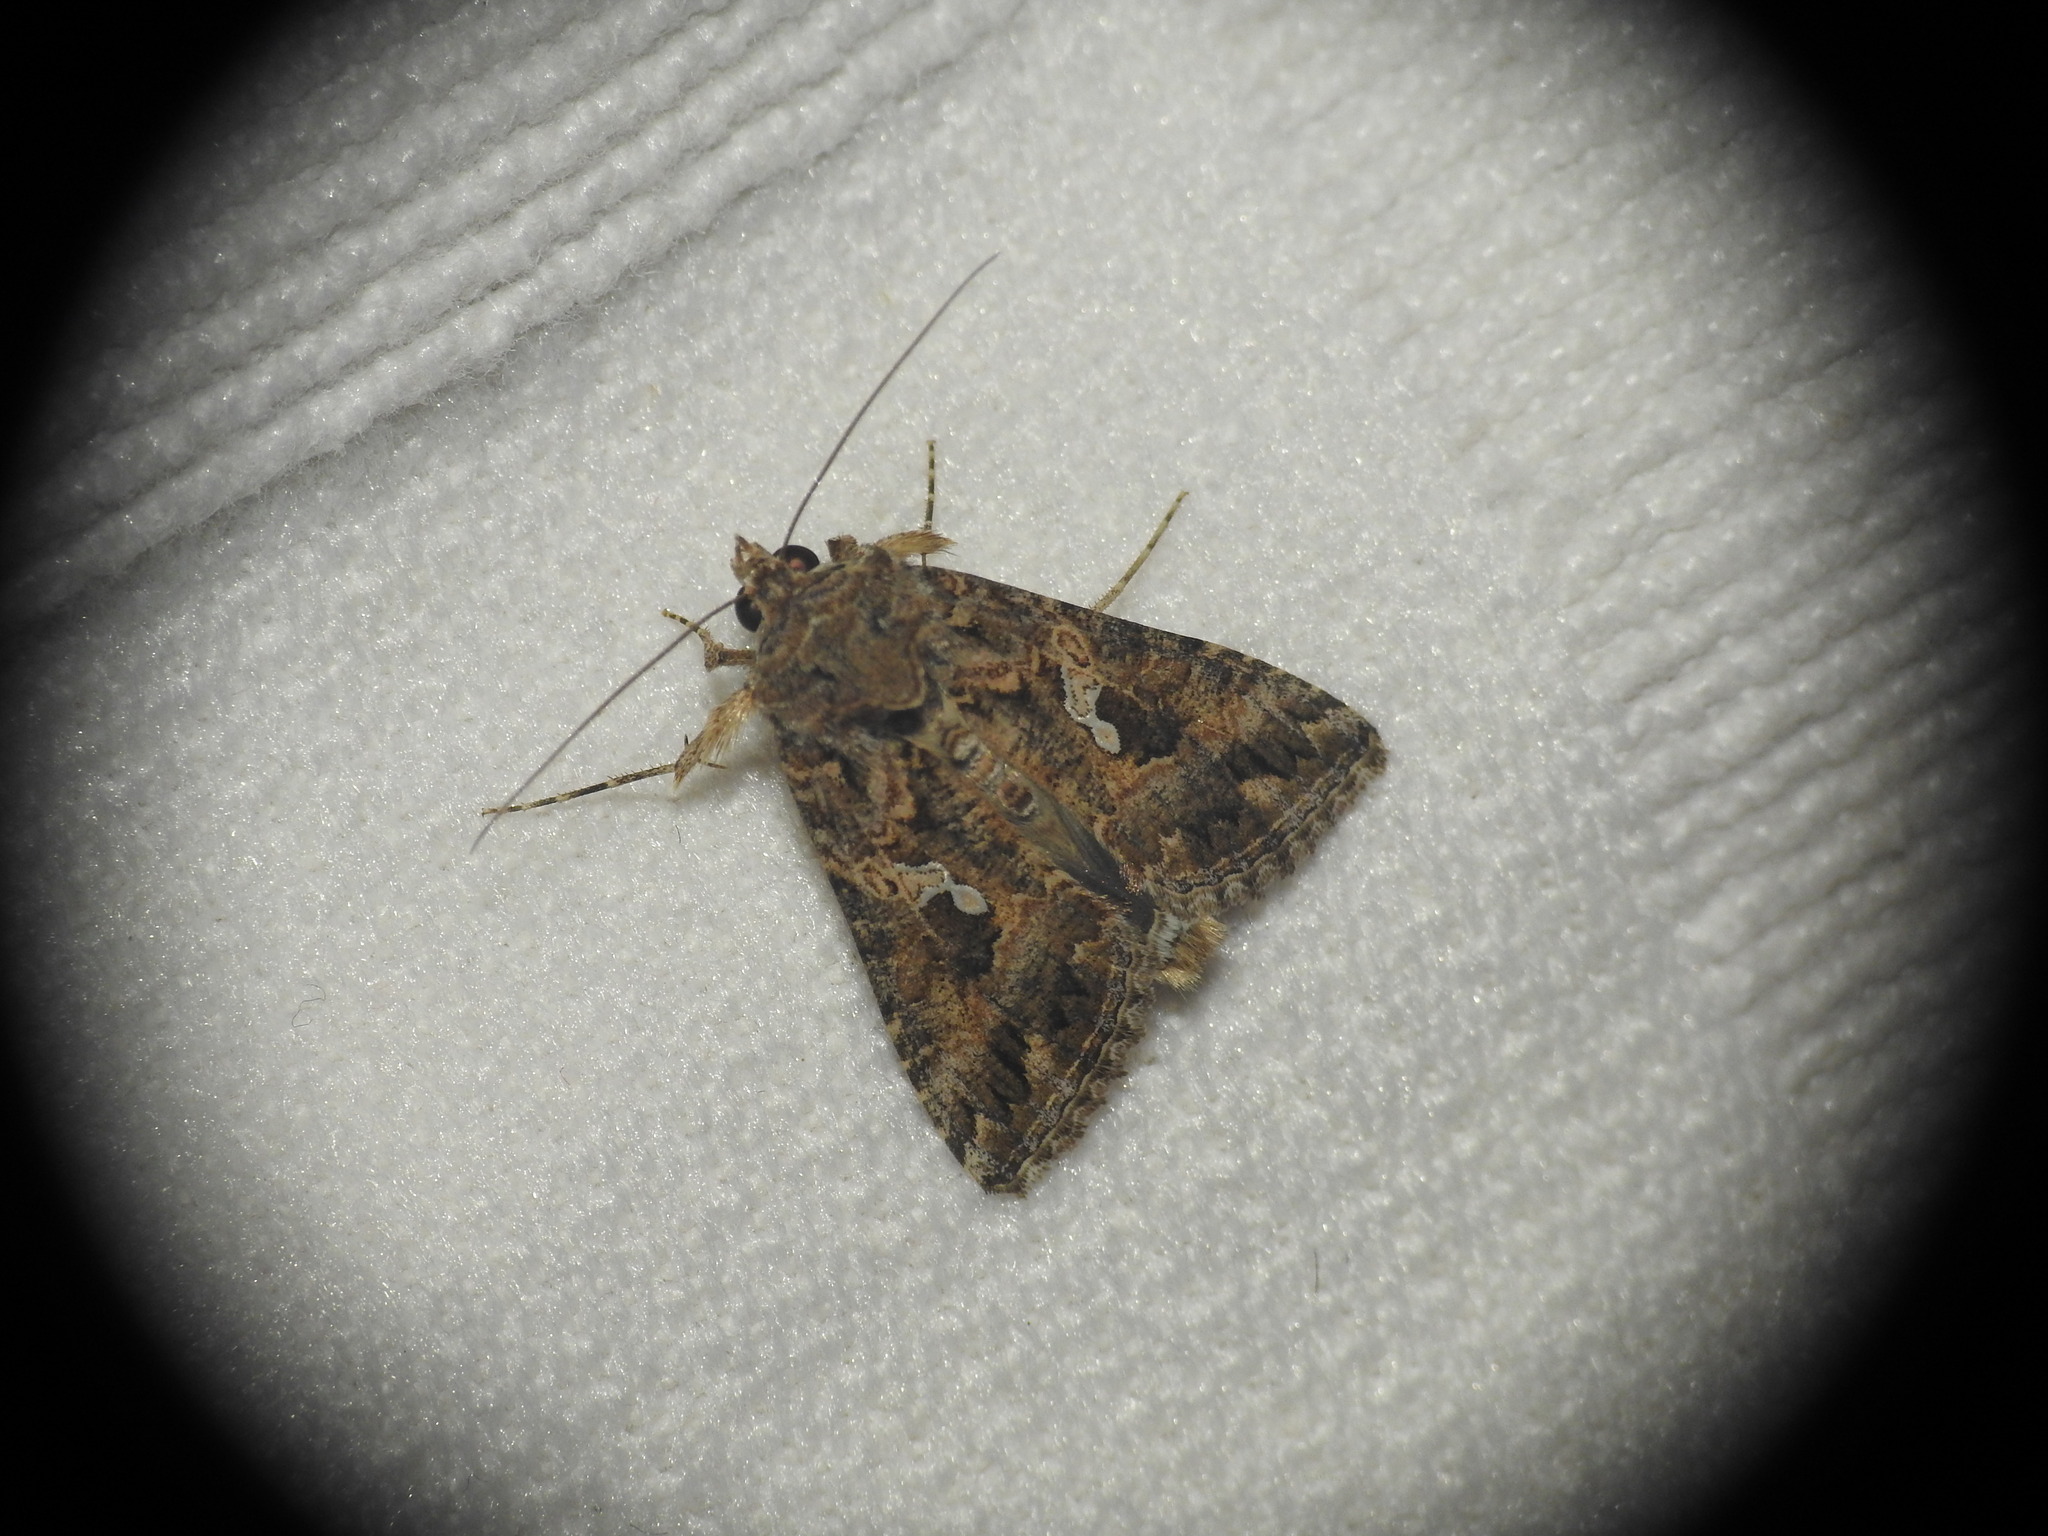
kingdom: Animalia
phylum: Arthropoda
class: Insecta
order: Lepidoptera
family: Noctuidae
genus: Trichoplusia
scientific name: Trichoplusia ni
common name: Ni moth
